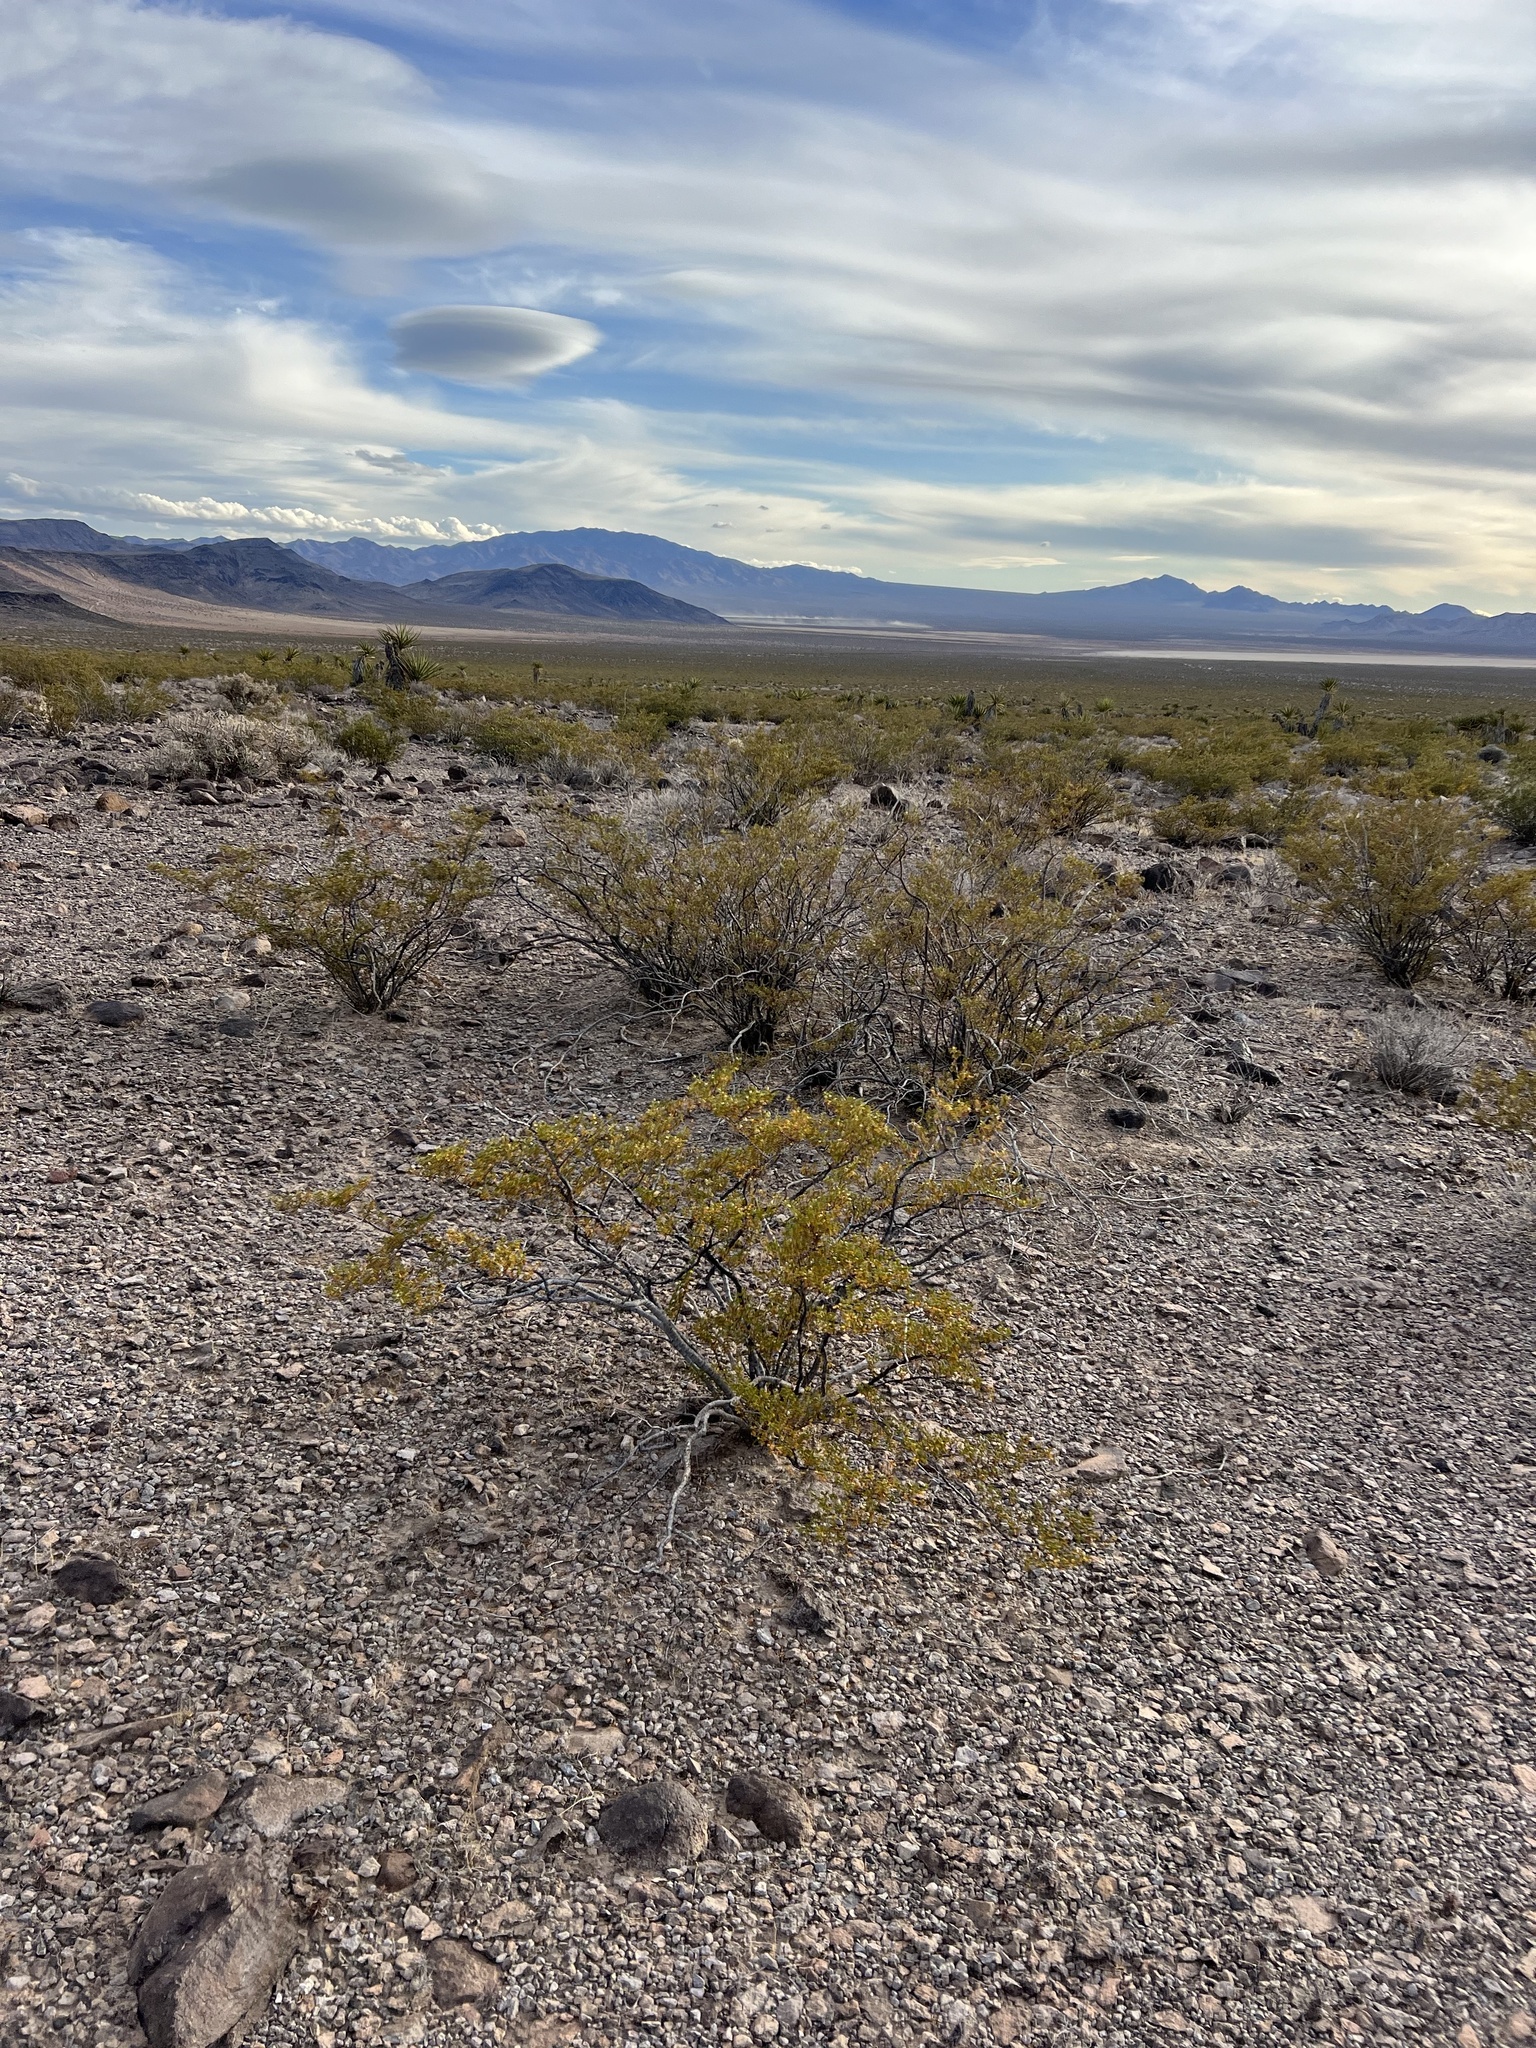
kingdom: Plantae
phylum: Tracheophyta
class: Magnoliopsida
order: Zygophyllales
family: Zygophyllaceae
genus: Larrea
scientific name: Larrea tridentata
